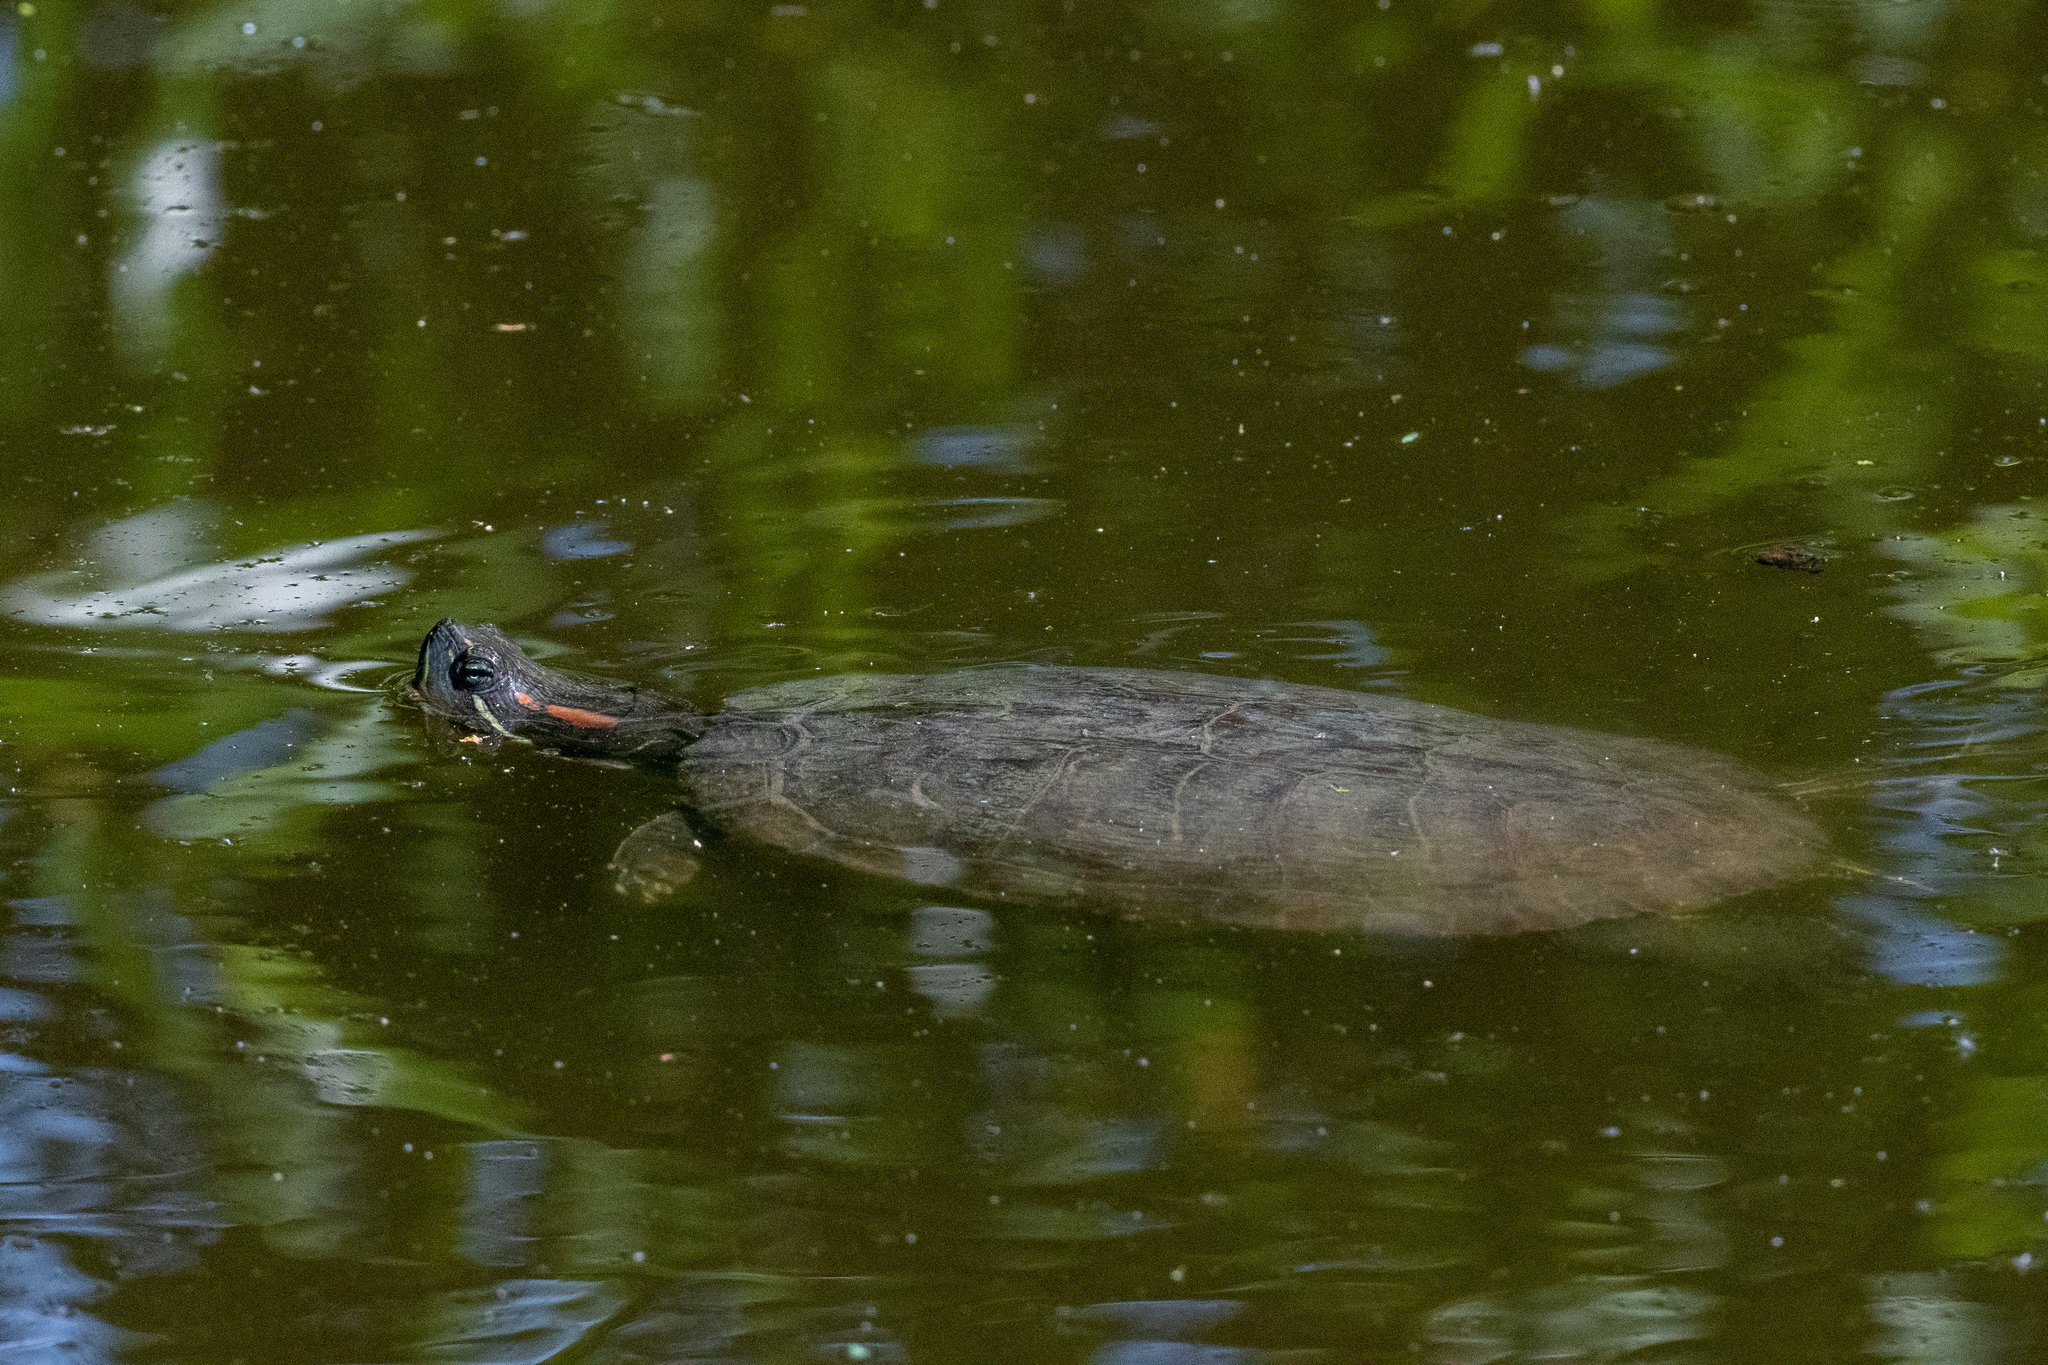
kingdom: Animalia
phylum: Chordata
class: Testudines
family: Emydidae
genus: Trachemys
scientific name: Trachemys scripta
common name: Slider
